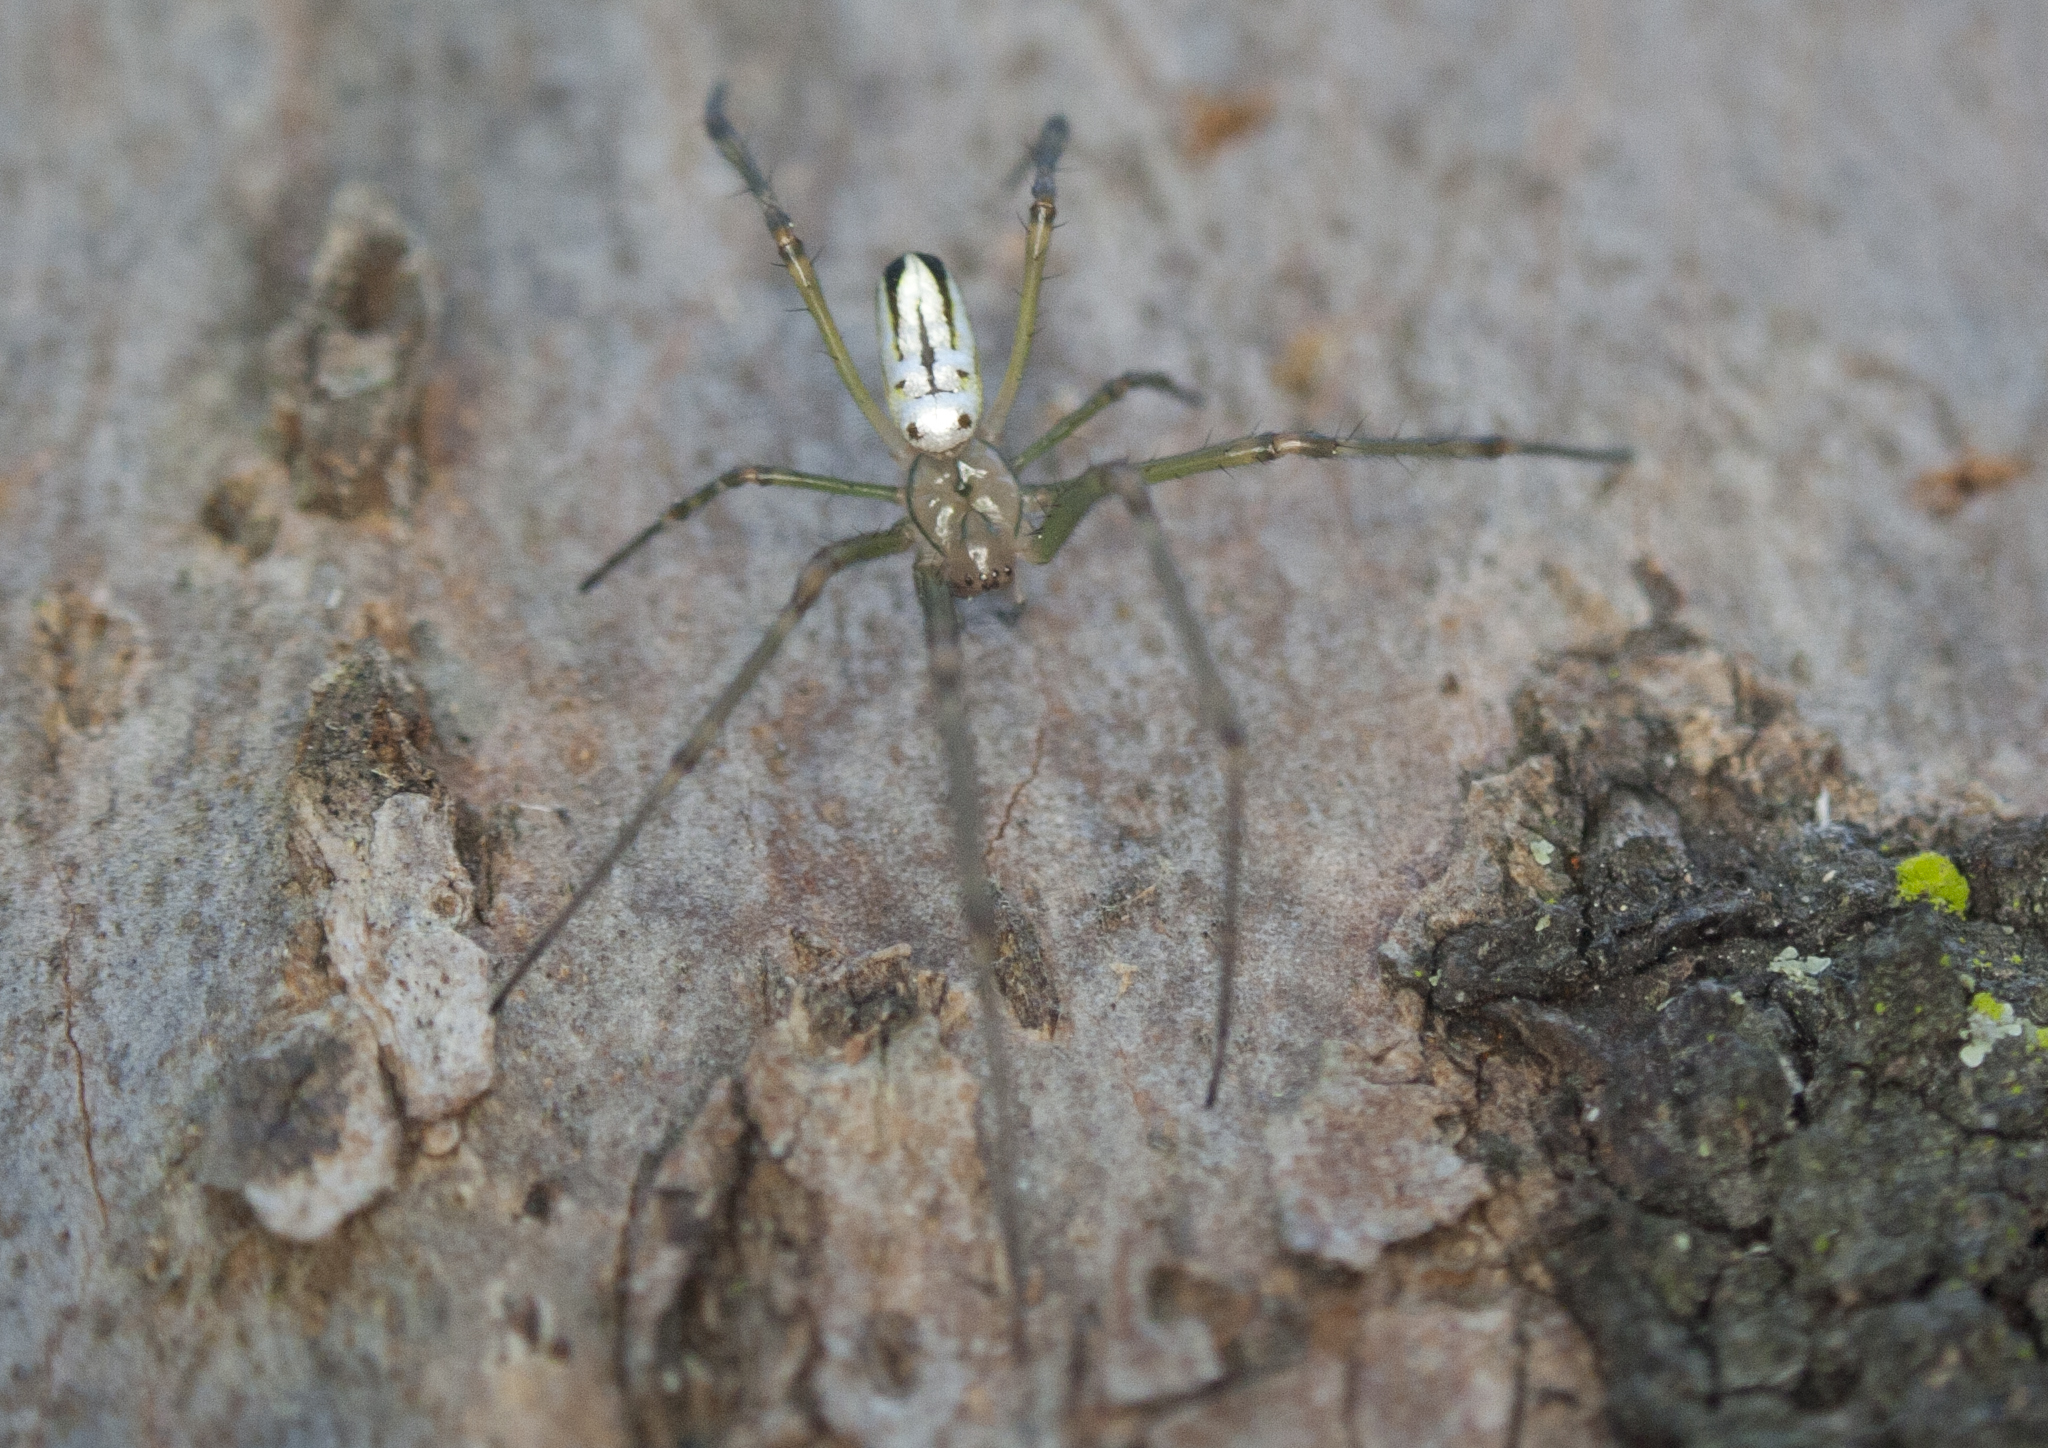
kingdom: Animalia
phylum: Arthropoda
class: Arachnida
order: Araneae
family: Tetragnathidae
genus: Leucauge
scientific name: Leucauge dromedaria
